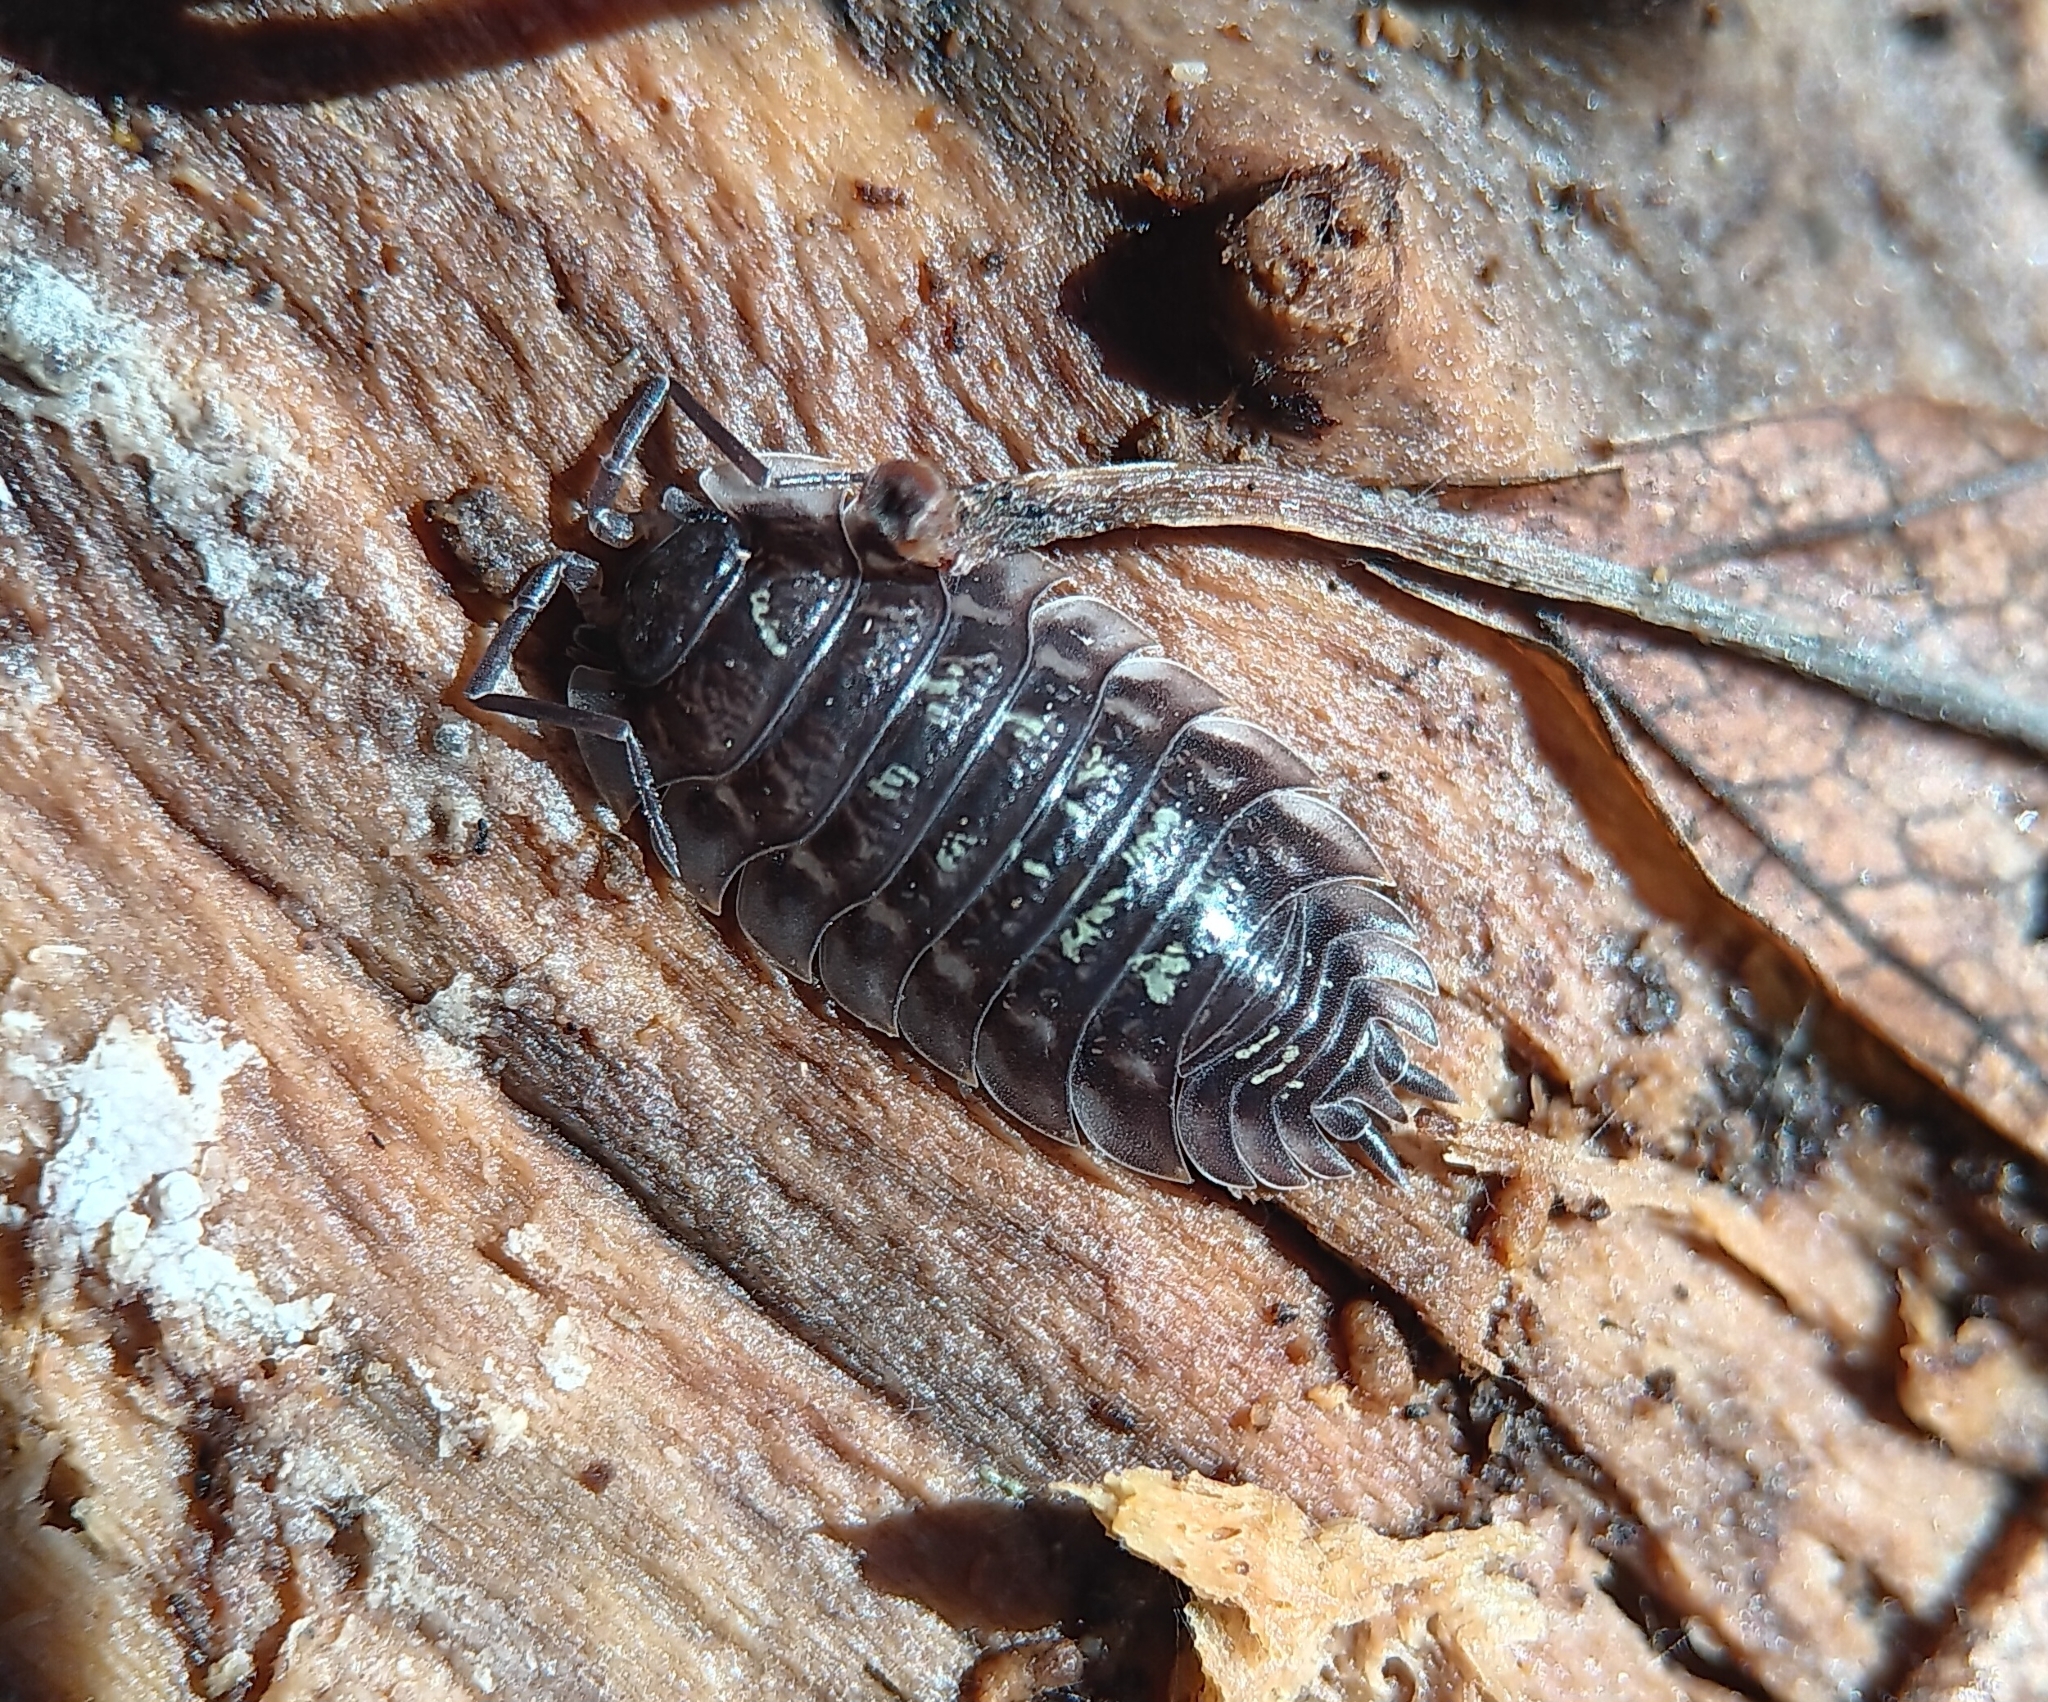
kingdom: Animalia
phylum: Arthropoda
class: Malacostraca
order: Isopoda
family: Oniscidae
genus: Oniscus
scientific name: Oniscus asellus
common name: Common shiny woodlouse
